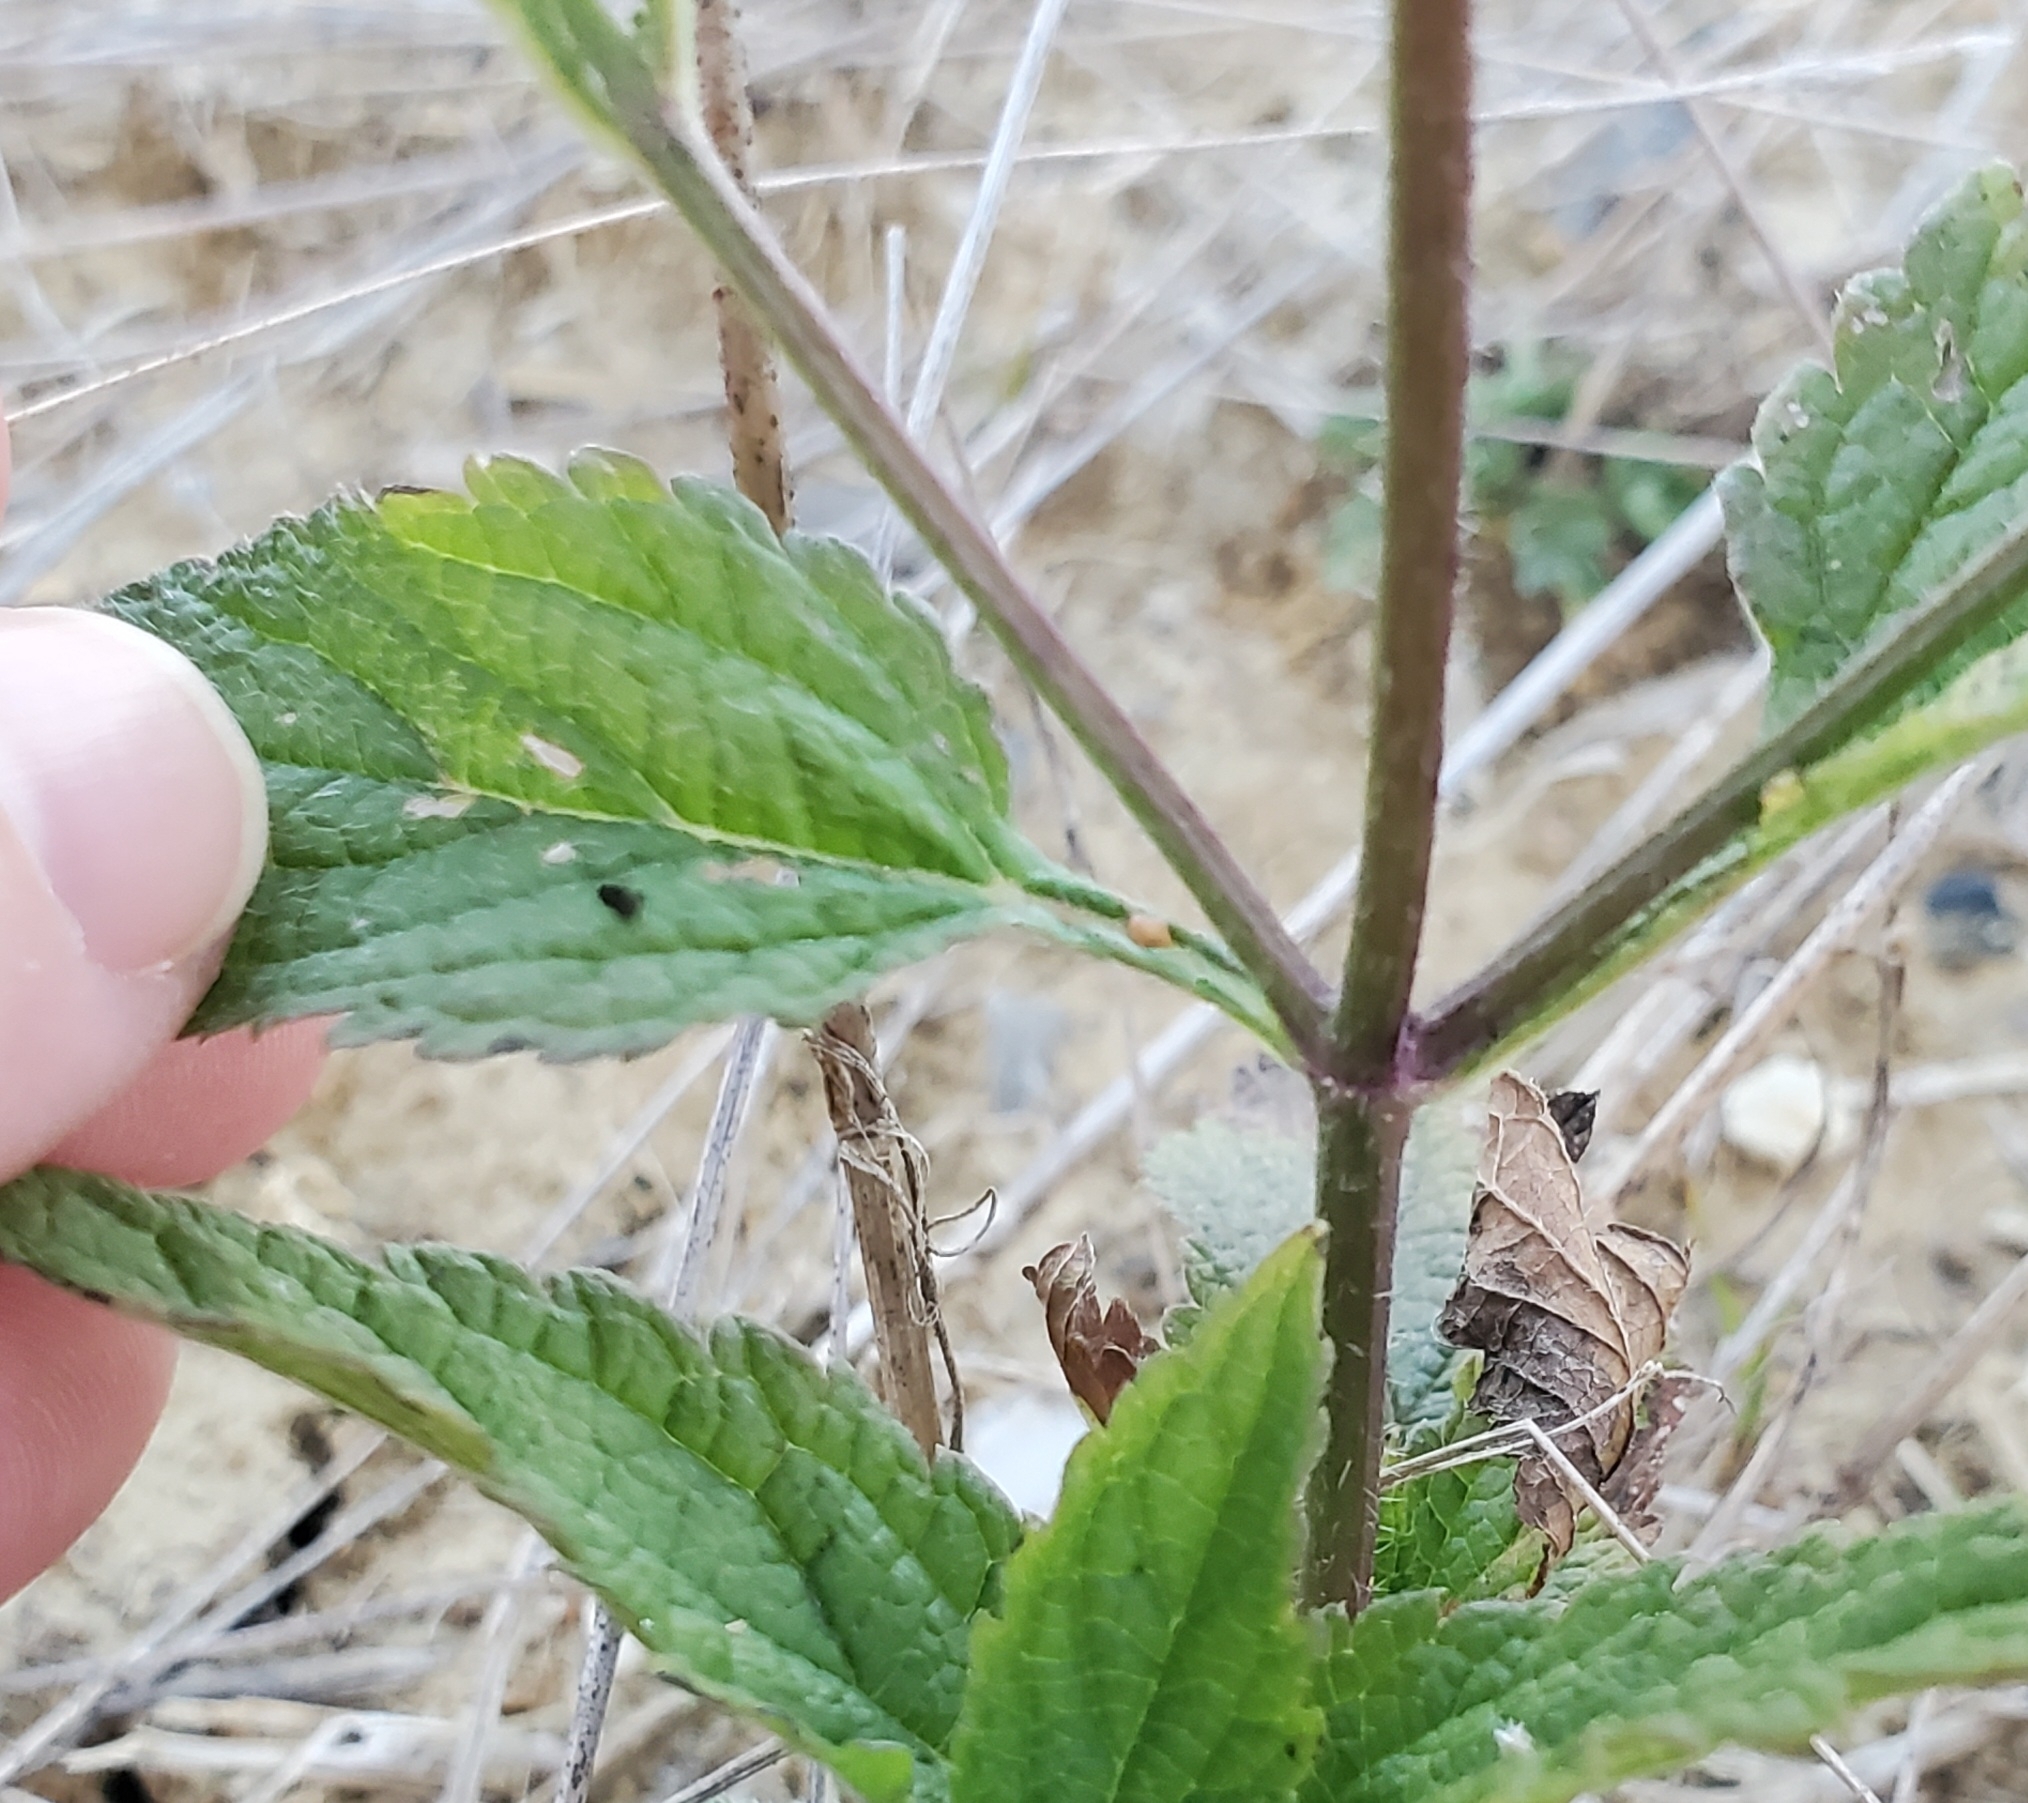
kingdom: Plantae
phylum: Tracheophyta
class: Magnoliopsida
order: Lamiales
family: Verbenaceae
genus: Verbena
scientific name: Verbena urticifolia
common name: Nettle-leaved vervain
